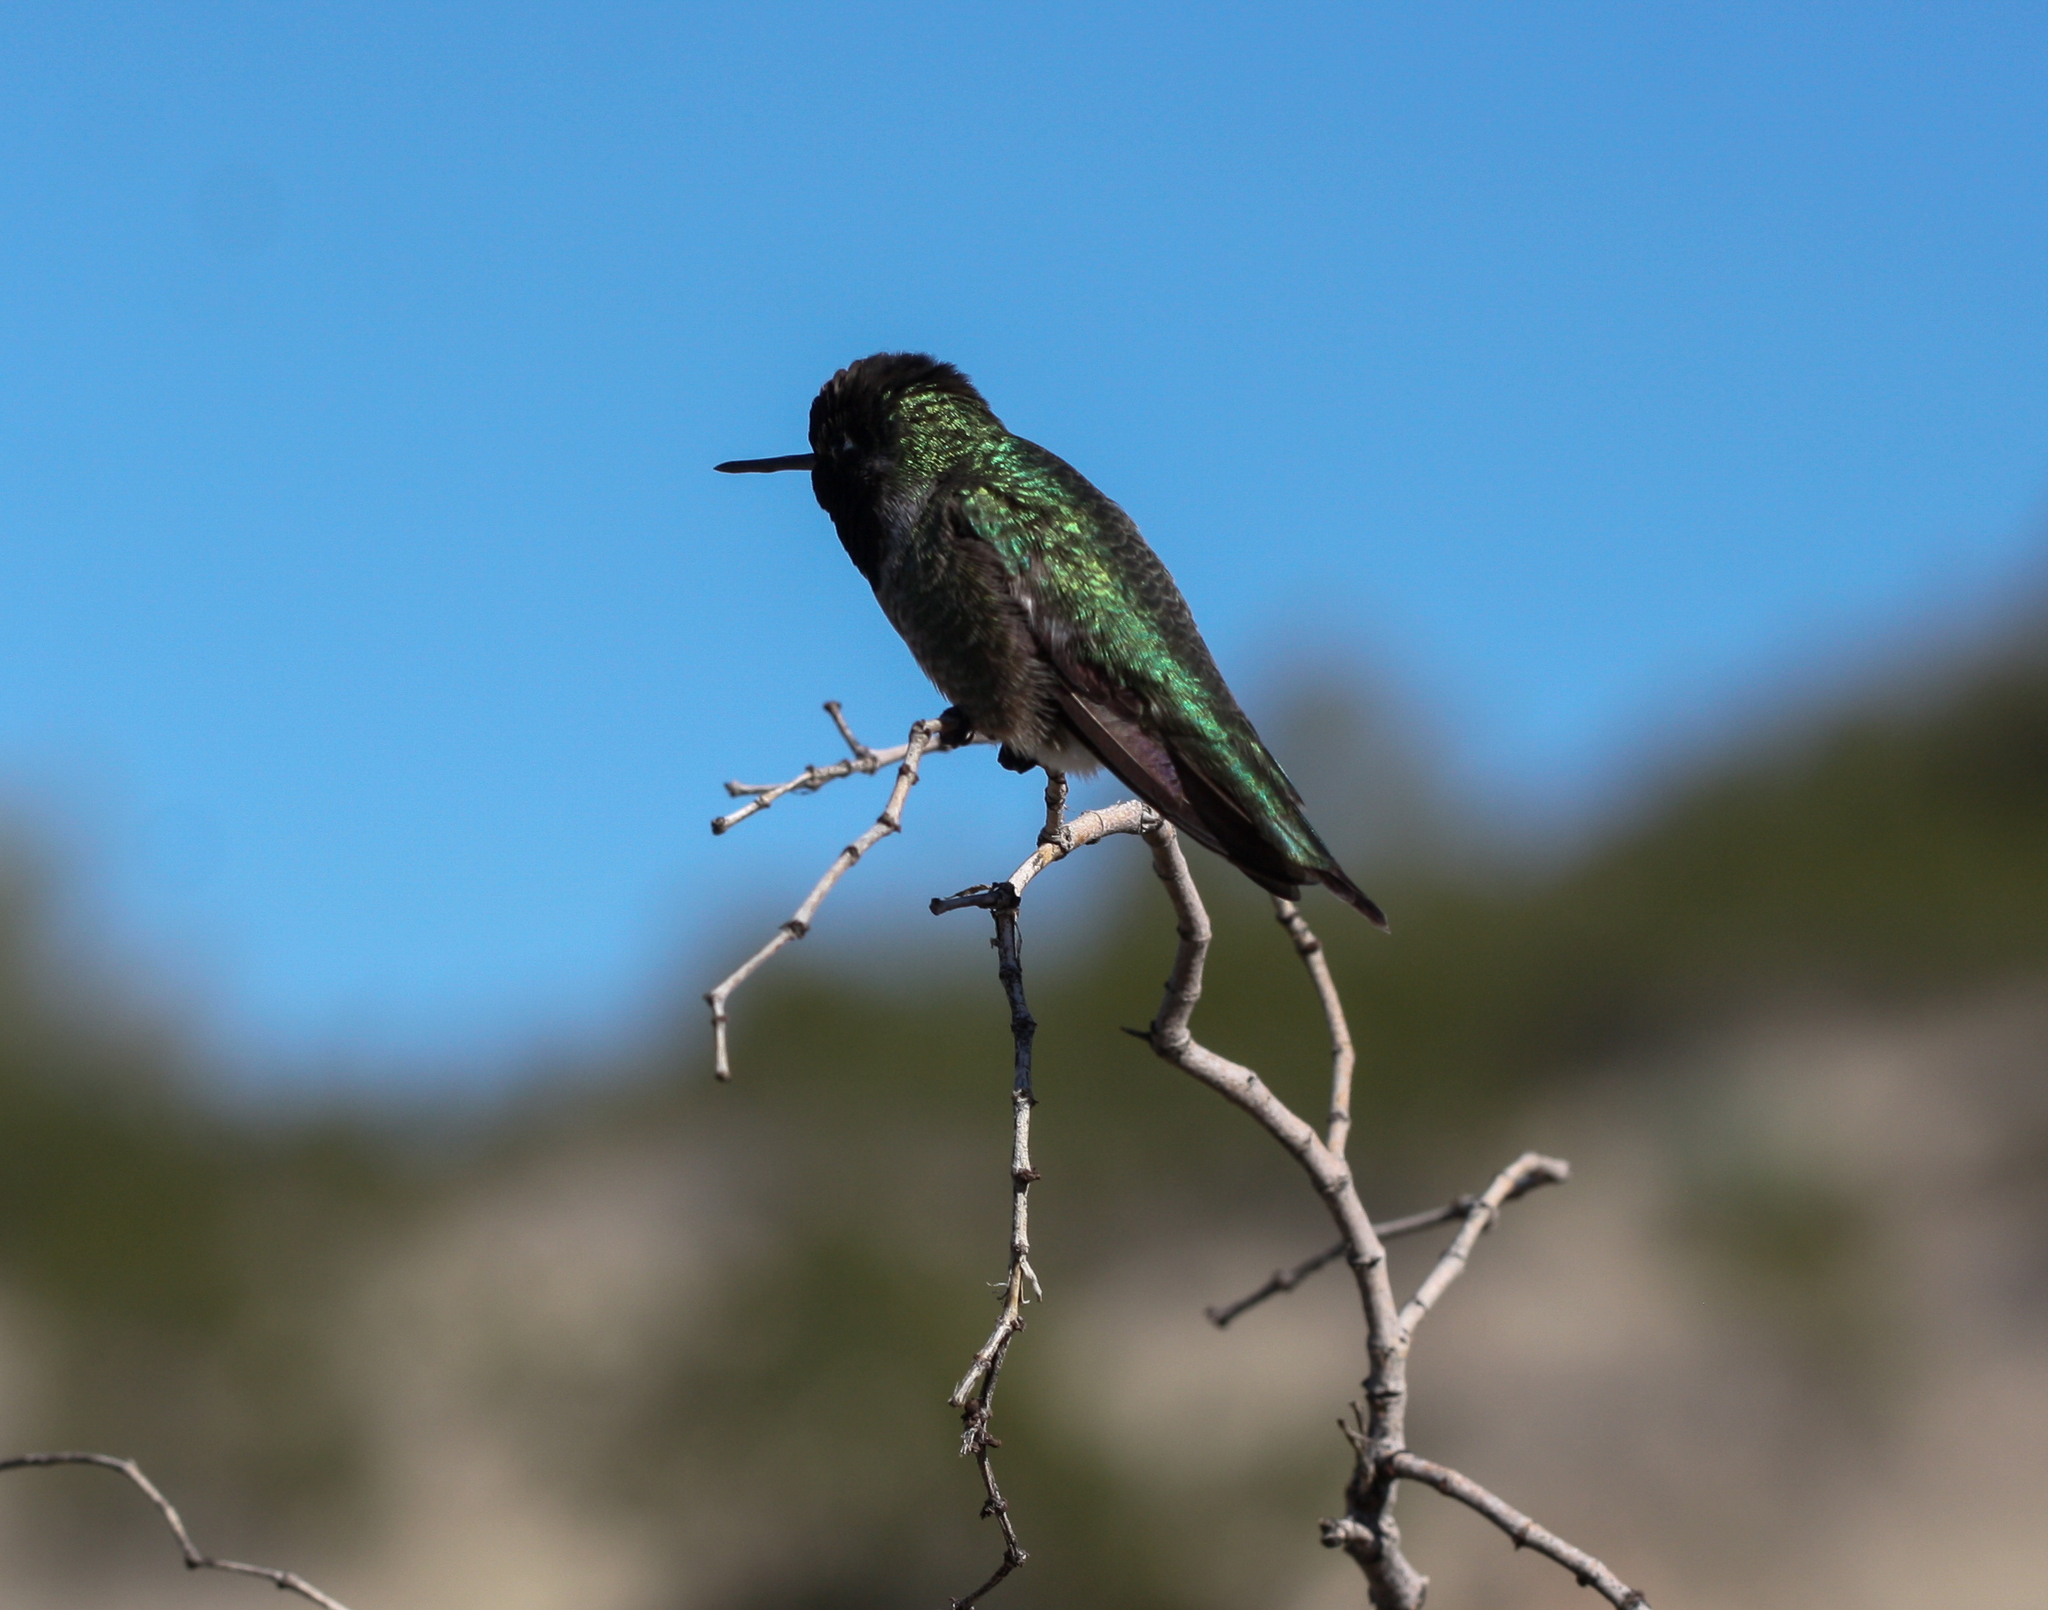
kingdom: Animalia
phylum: Chordata
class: Aves
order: Apodiformes
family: Trochilidae
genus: Calypte
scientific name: Calypte anna
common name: Anna's hummingbird
